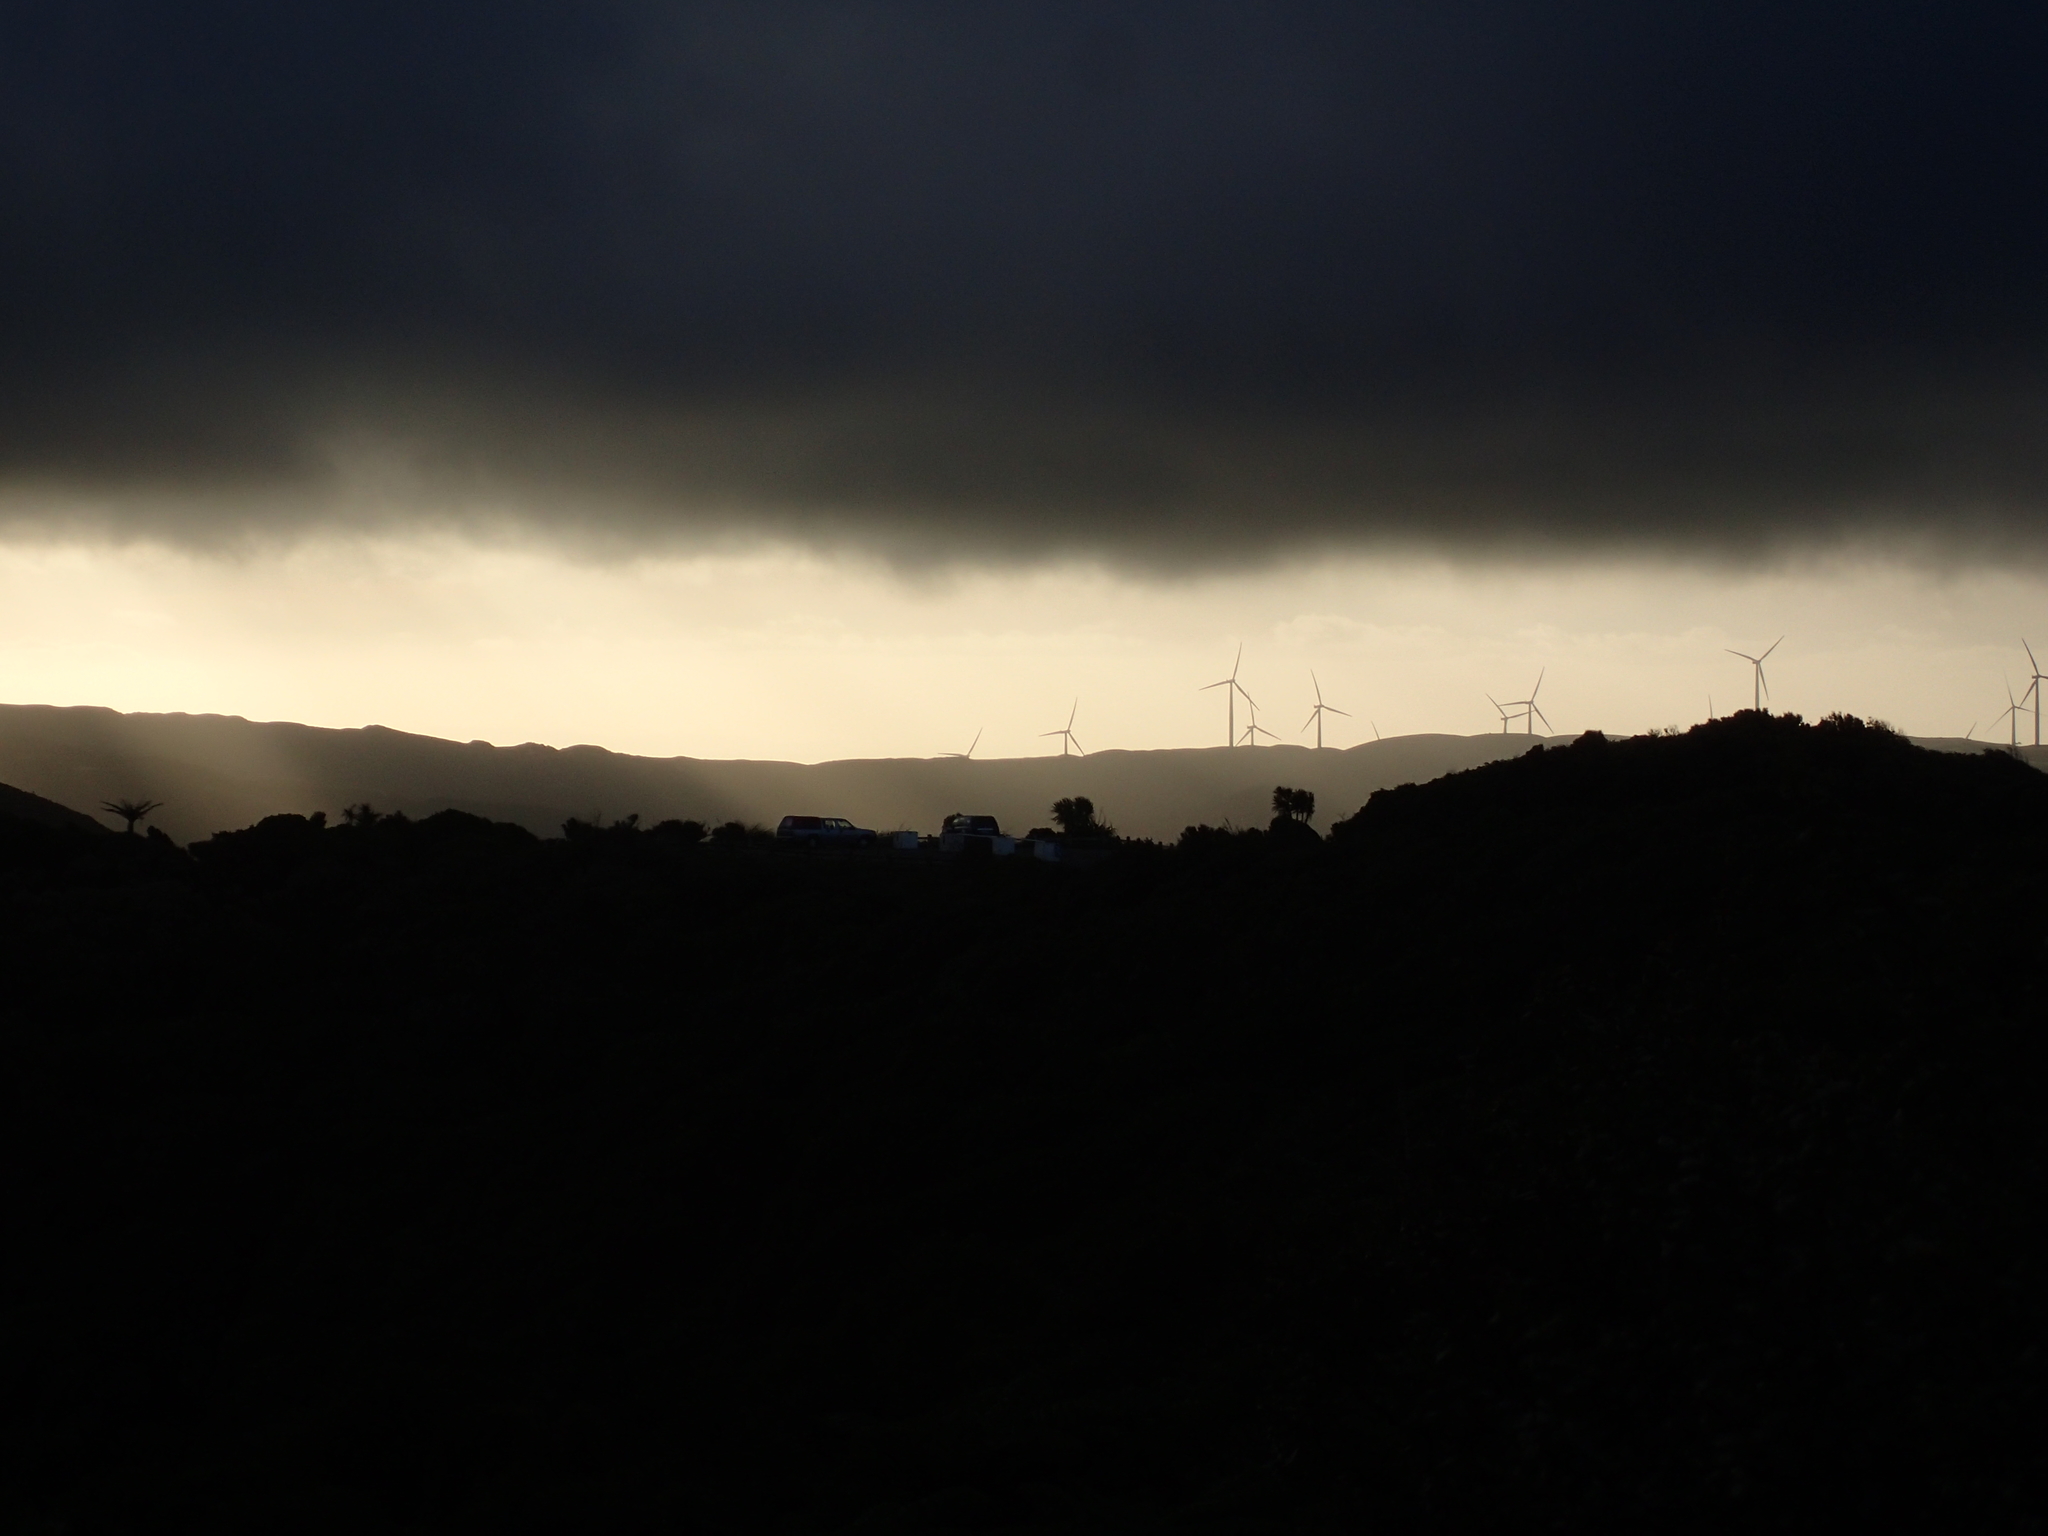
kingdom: Plantae
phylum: Tracheophyta
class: Liliopsida
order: Asparagales
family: Asparagaceae
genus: Cordyline
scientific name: Cordyline australis
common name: Cabbage-palm
